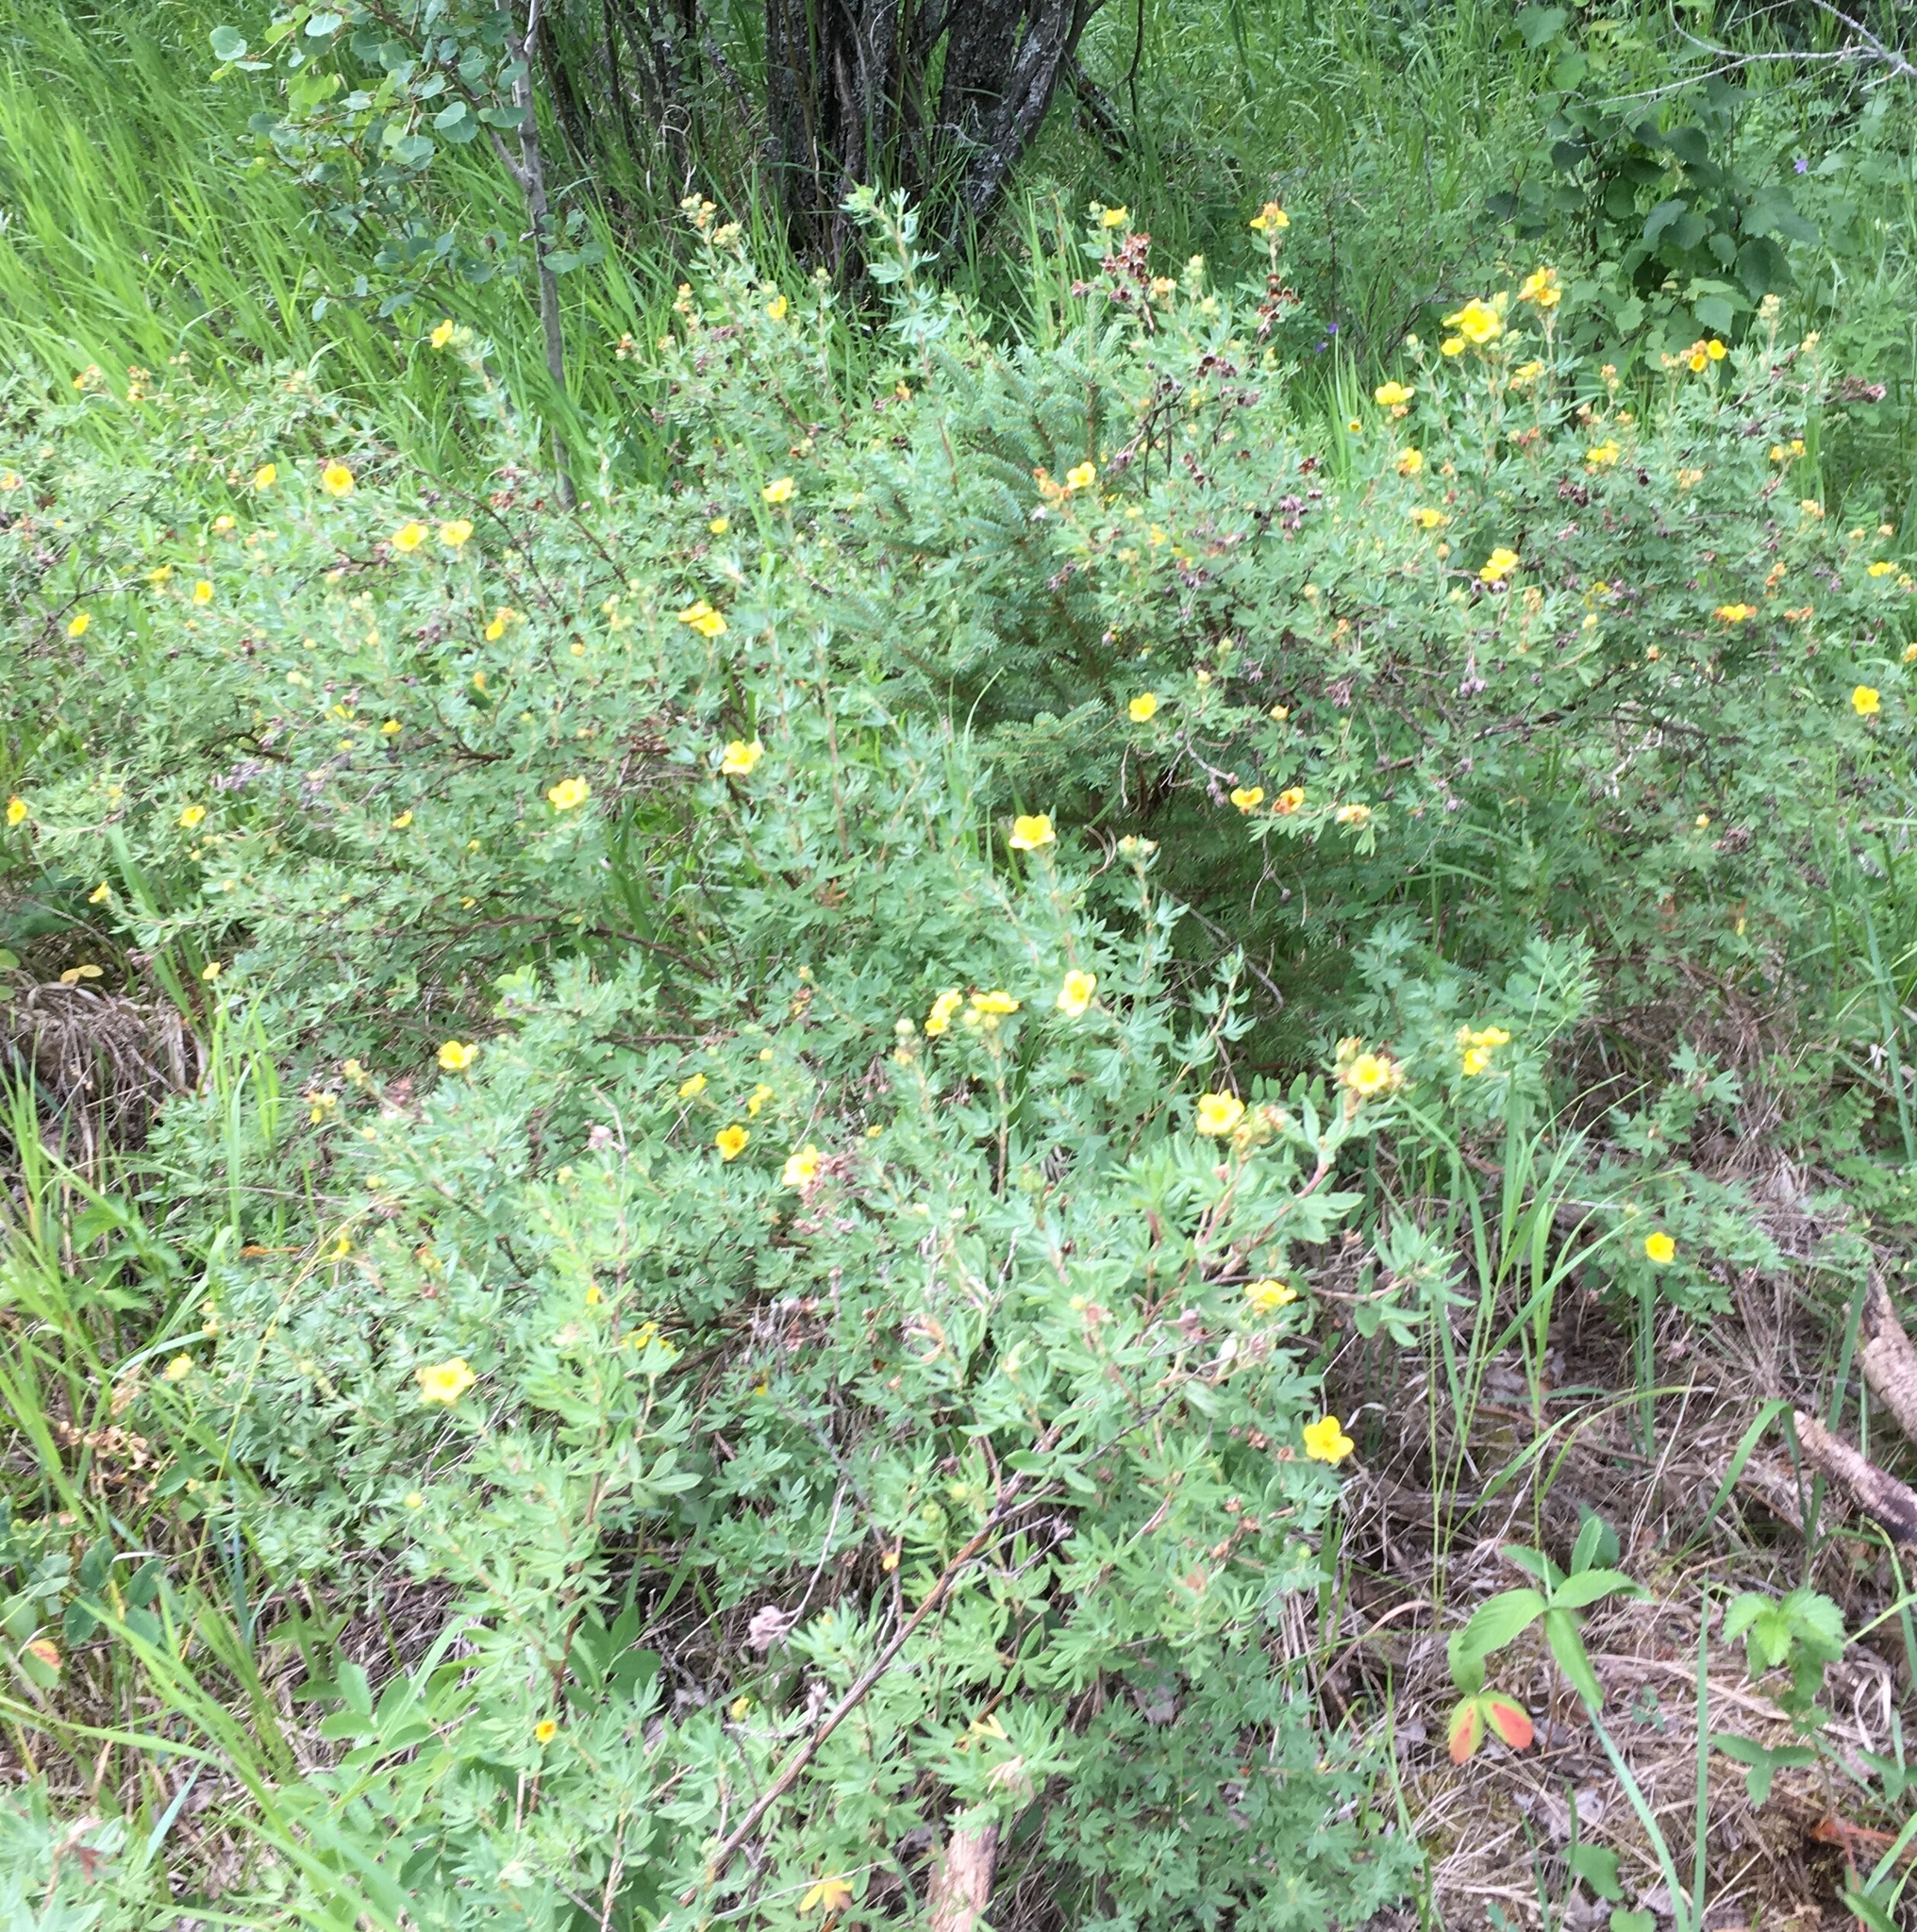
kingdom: Plantae
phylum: Tracheophyta
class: Magnoliopsida
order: Rosales
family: Rosaceae
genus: Dasiphora
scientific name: Dasiphora fruticosa
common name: Shrubby cinquefoil
